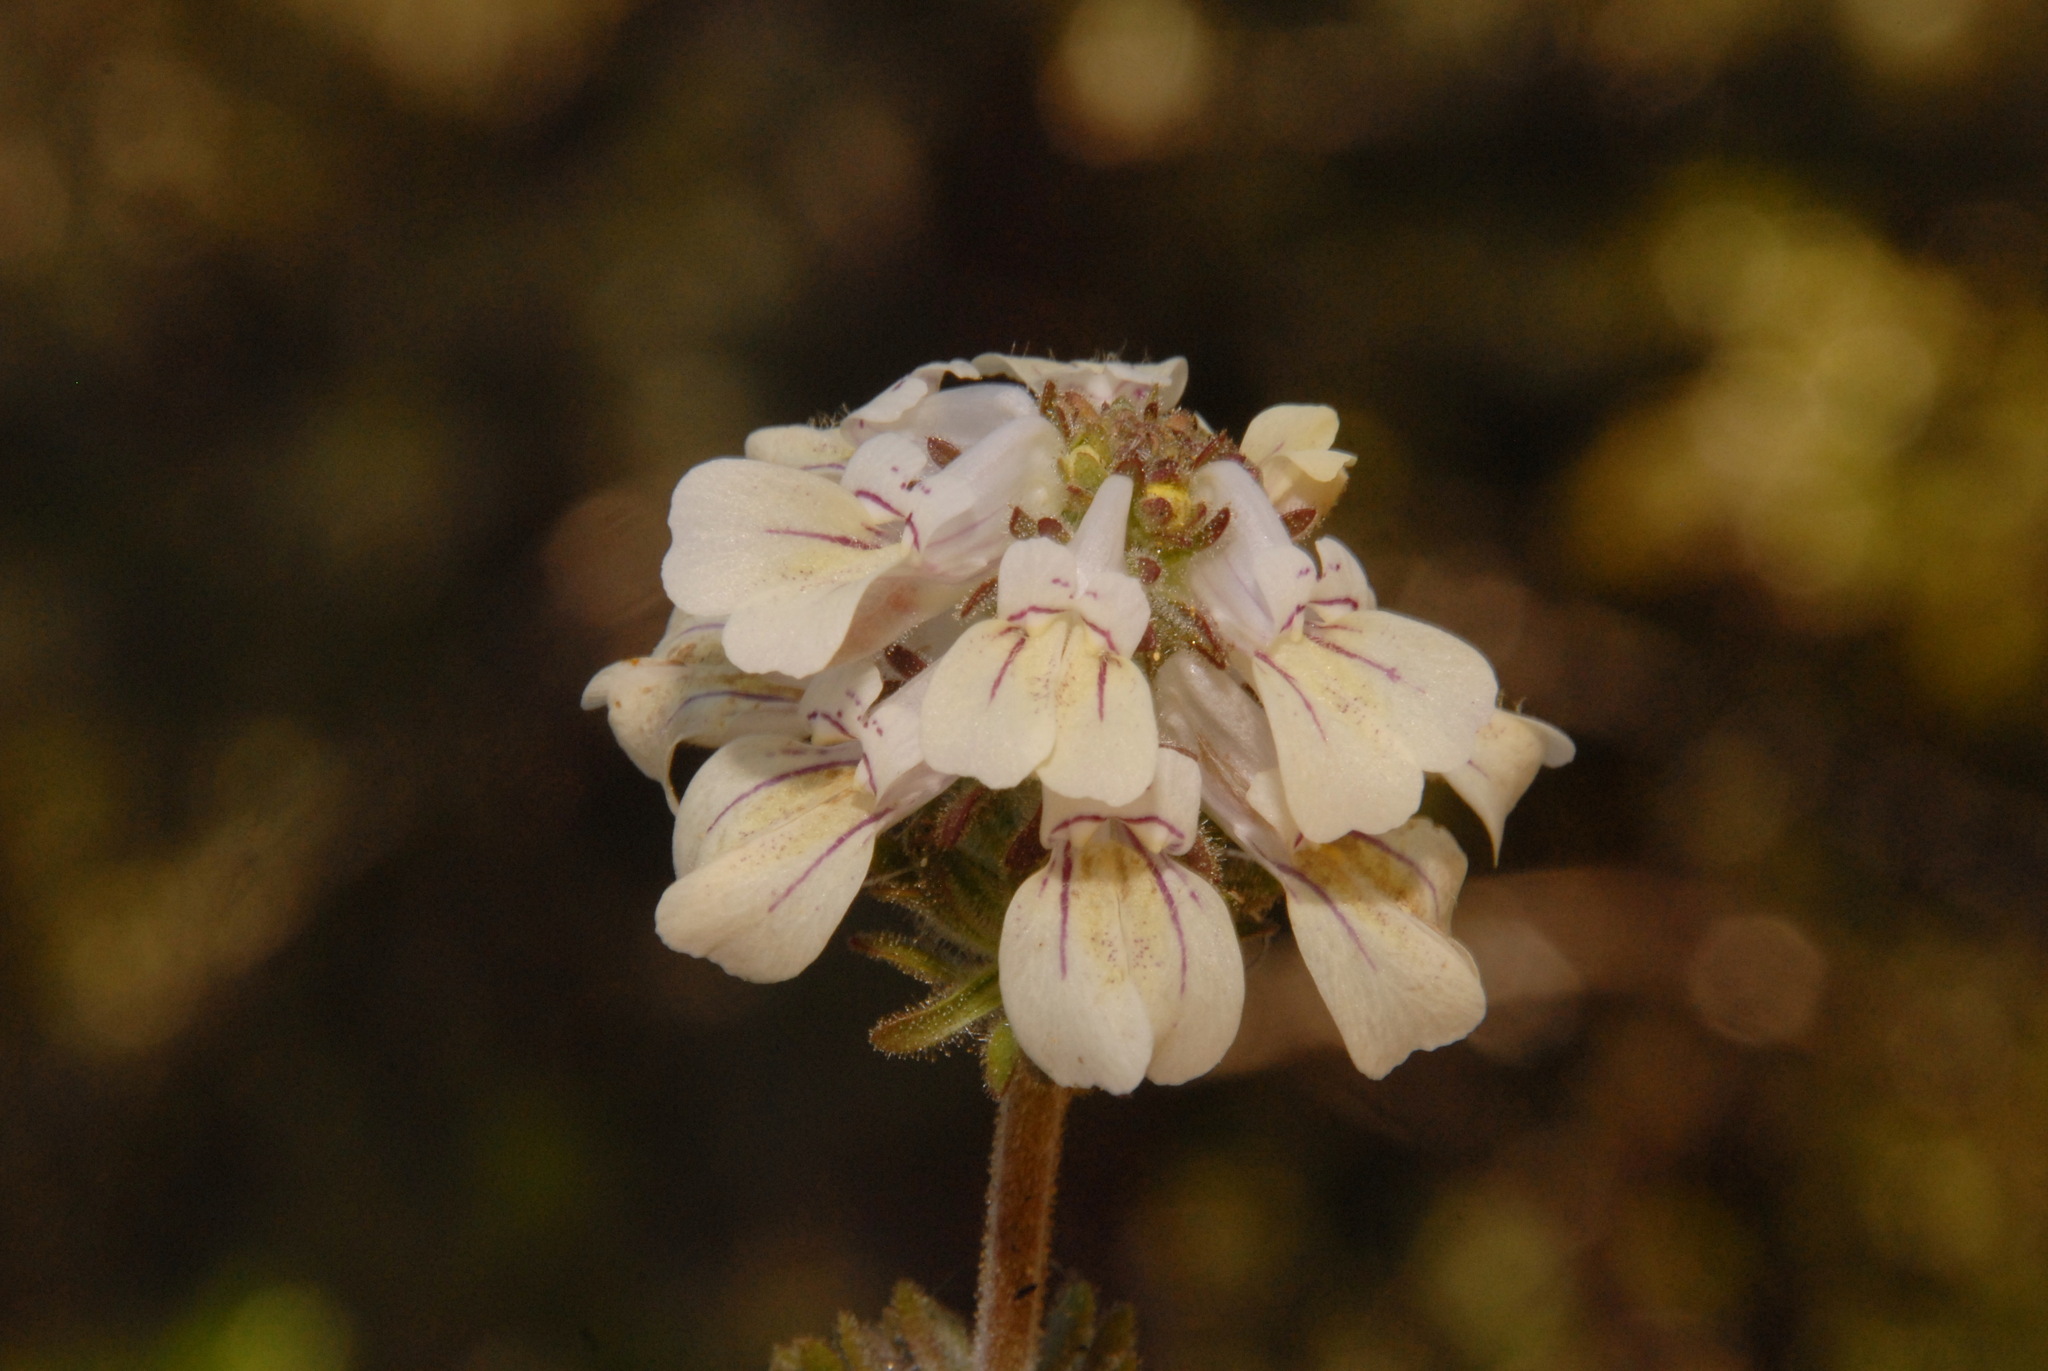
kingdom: Plantae
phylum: Tracheophyta
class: Magnoliopsida
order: Lamiales
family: Plantaginaceae
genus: Collinsia
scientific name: Collinsia tinctoria
